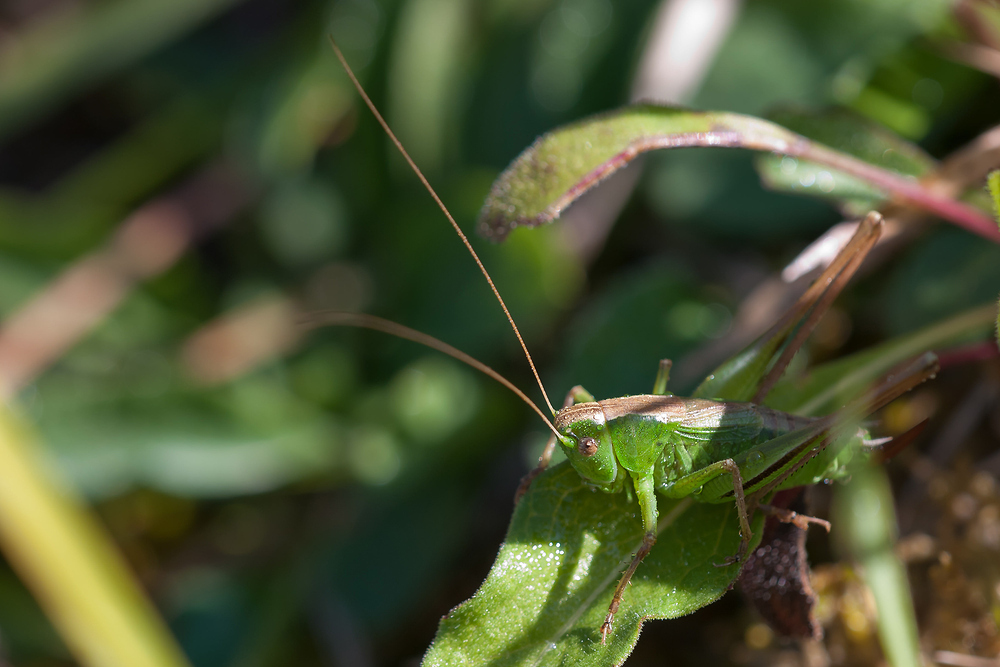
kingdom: Animalia
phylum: Arthropoda
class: Insecta
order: Orthoptera
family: Tettigoniidae
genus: Bicolorana
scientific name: Bicolorana bicolor
